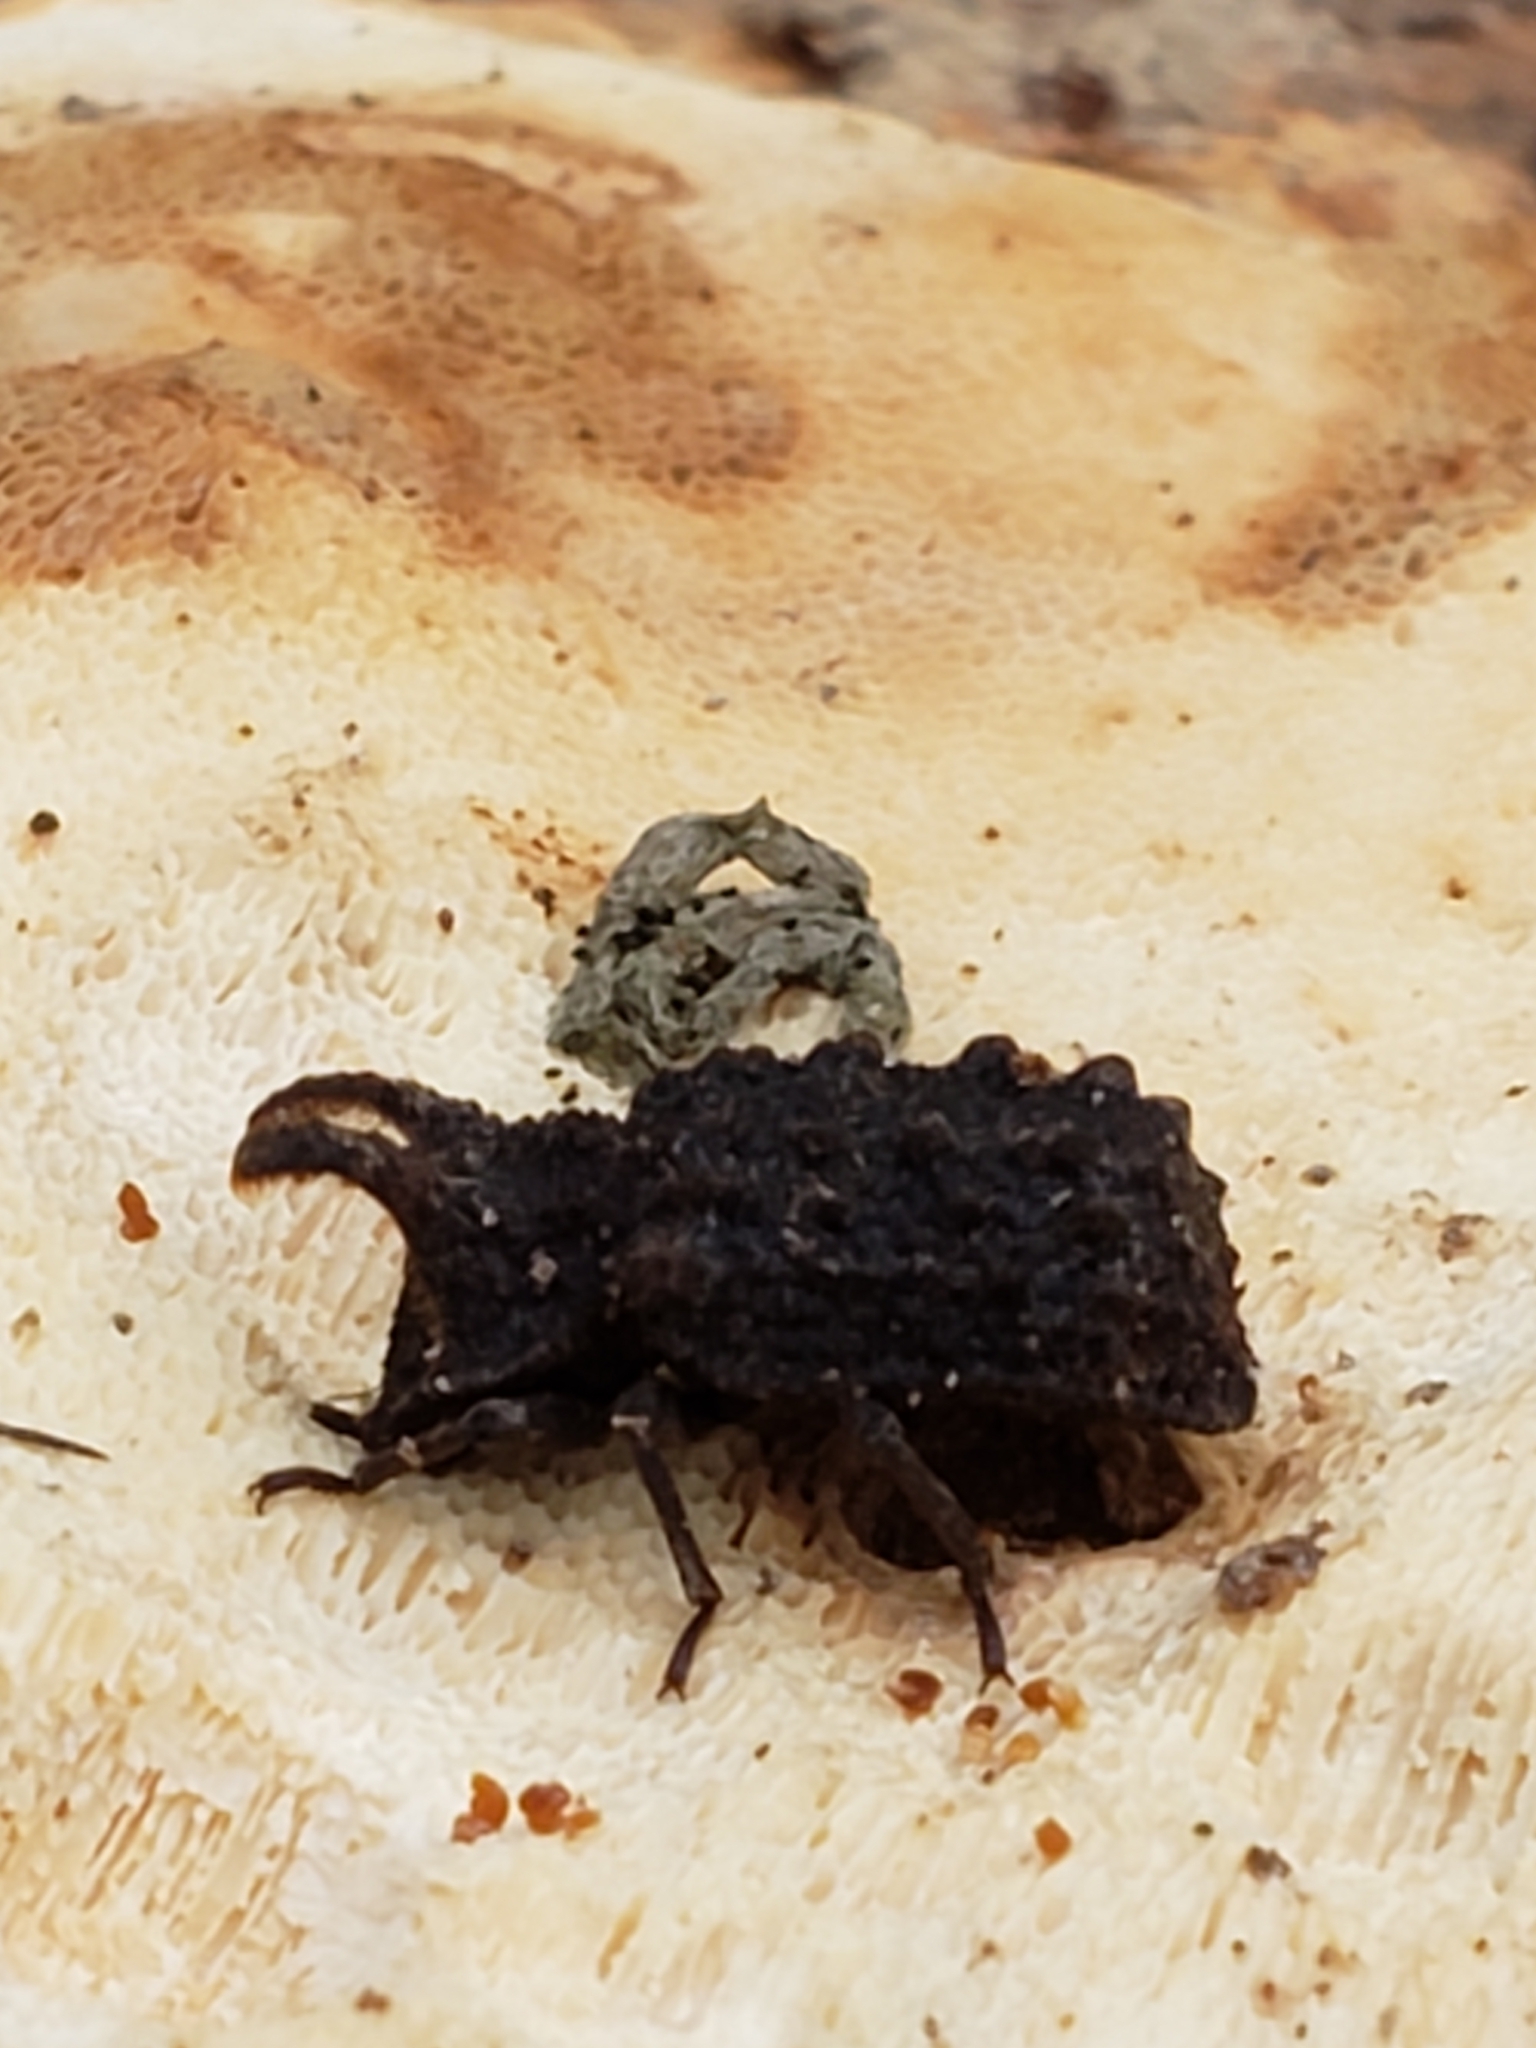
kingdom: Animalia
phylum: Arthropoda
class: Insecta
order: Coleoptera
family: Tenebrionidae
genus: Gnatocerus
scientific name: Gnatocerus cornutus
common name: Broad-horned flour beetle
